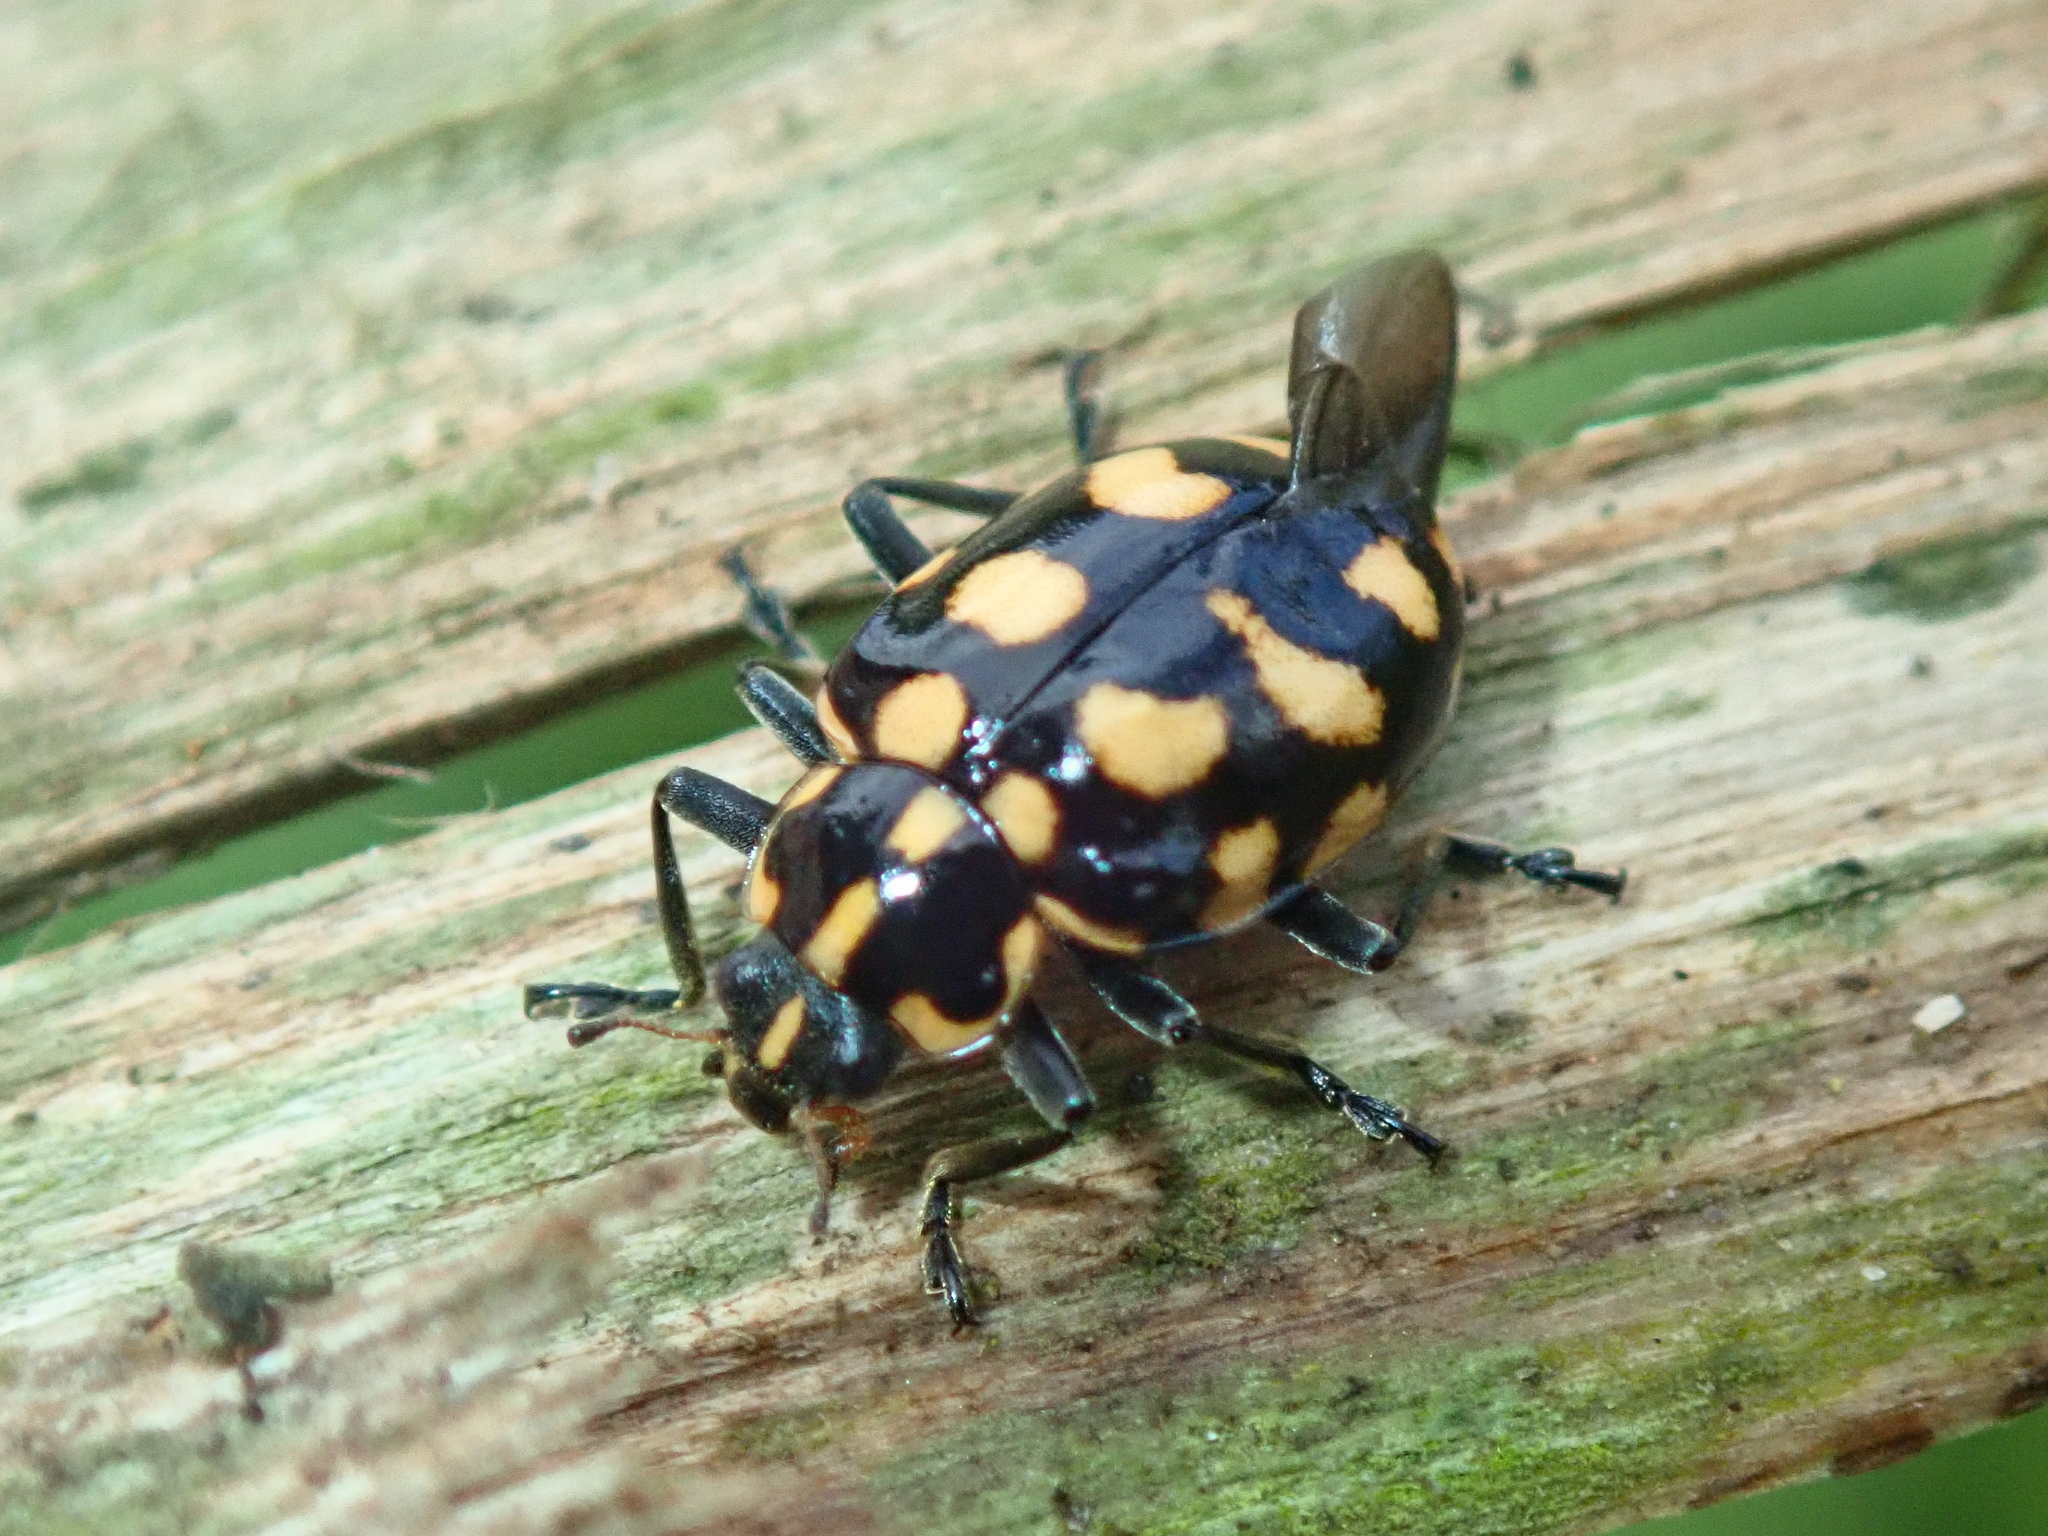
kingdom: Animalia
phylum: Arthropoda
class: Insecta
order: Coleoptera
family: Coccinellidae
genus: Coleomegilla
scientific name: Coleomegilla
